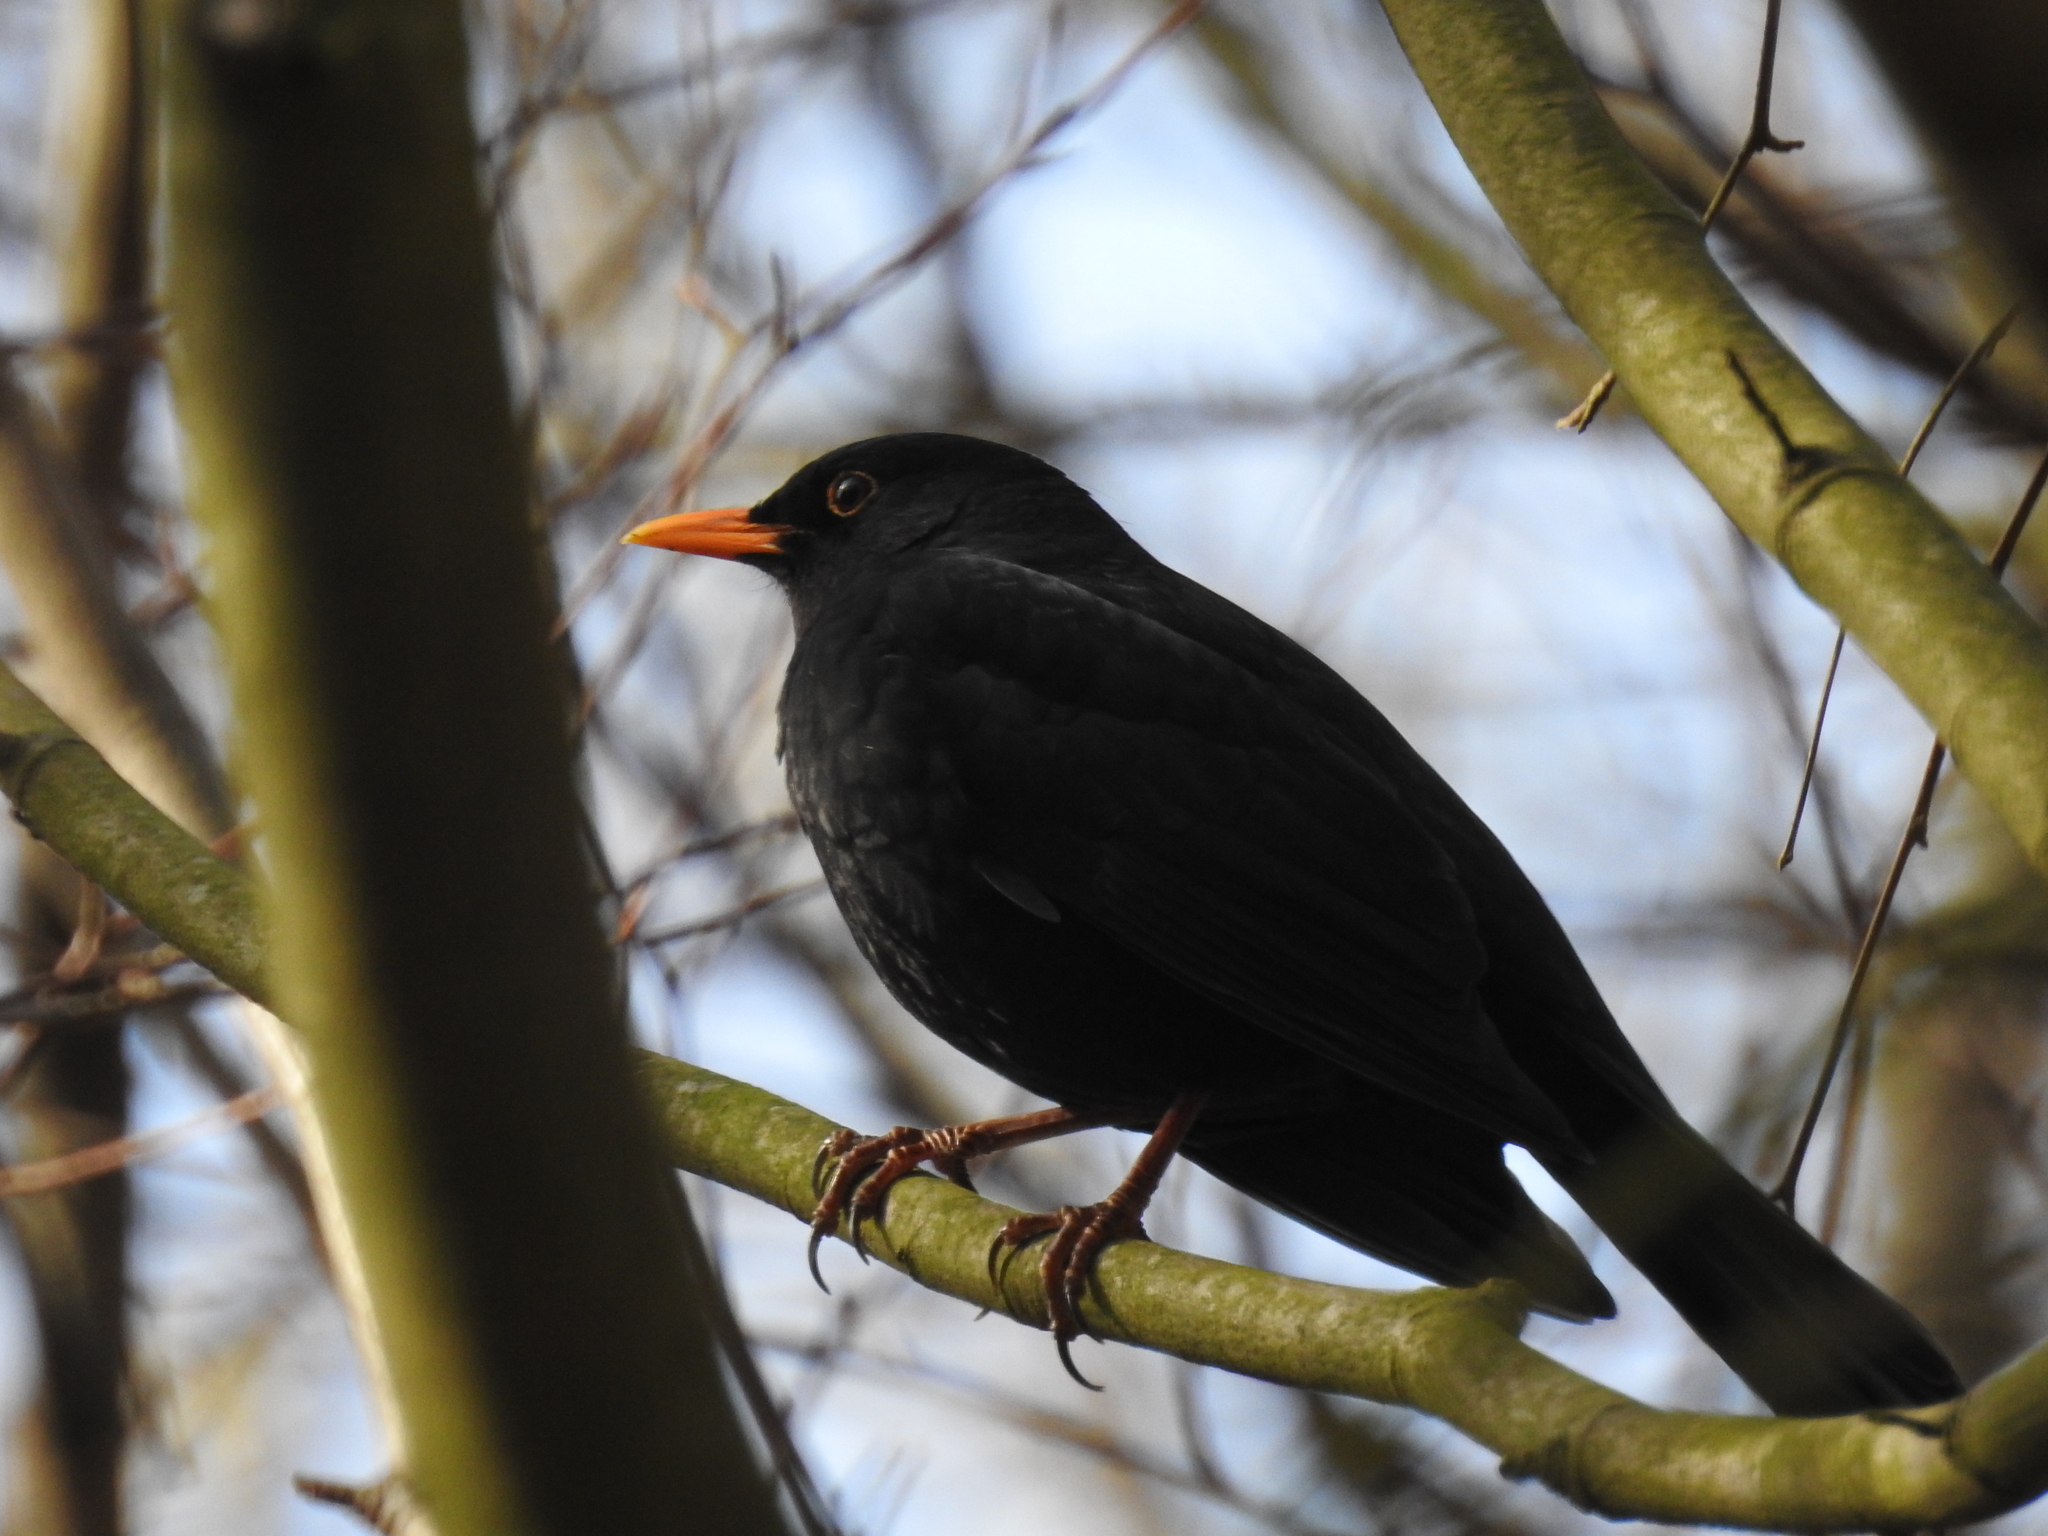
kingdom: Animalia
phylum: Chordata
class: Aves
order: Passeriformes
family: Turdidae
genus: Turdus
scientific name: Turdus merula
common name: Common blackbird
